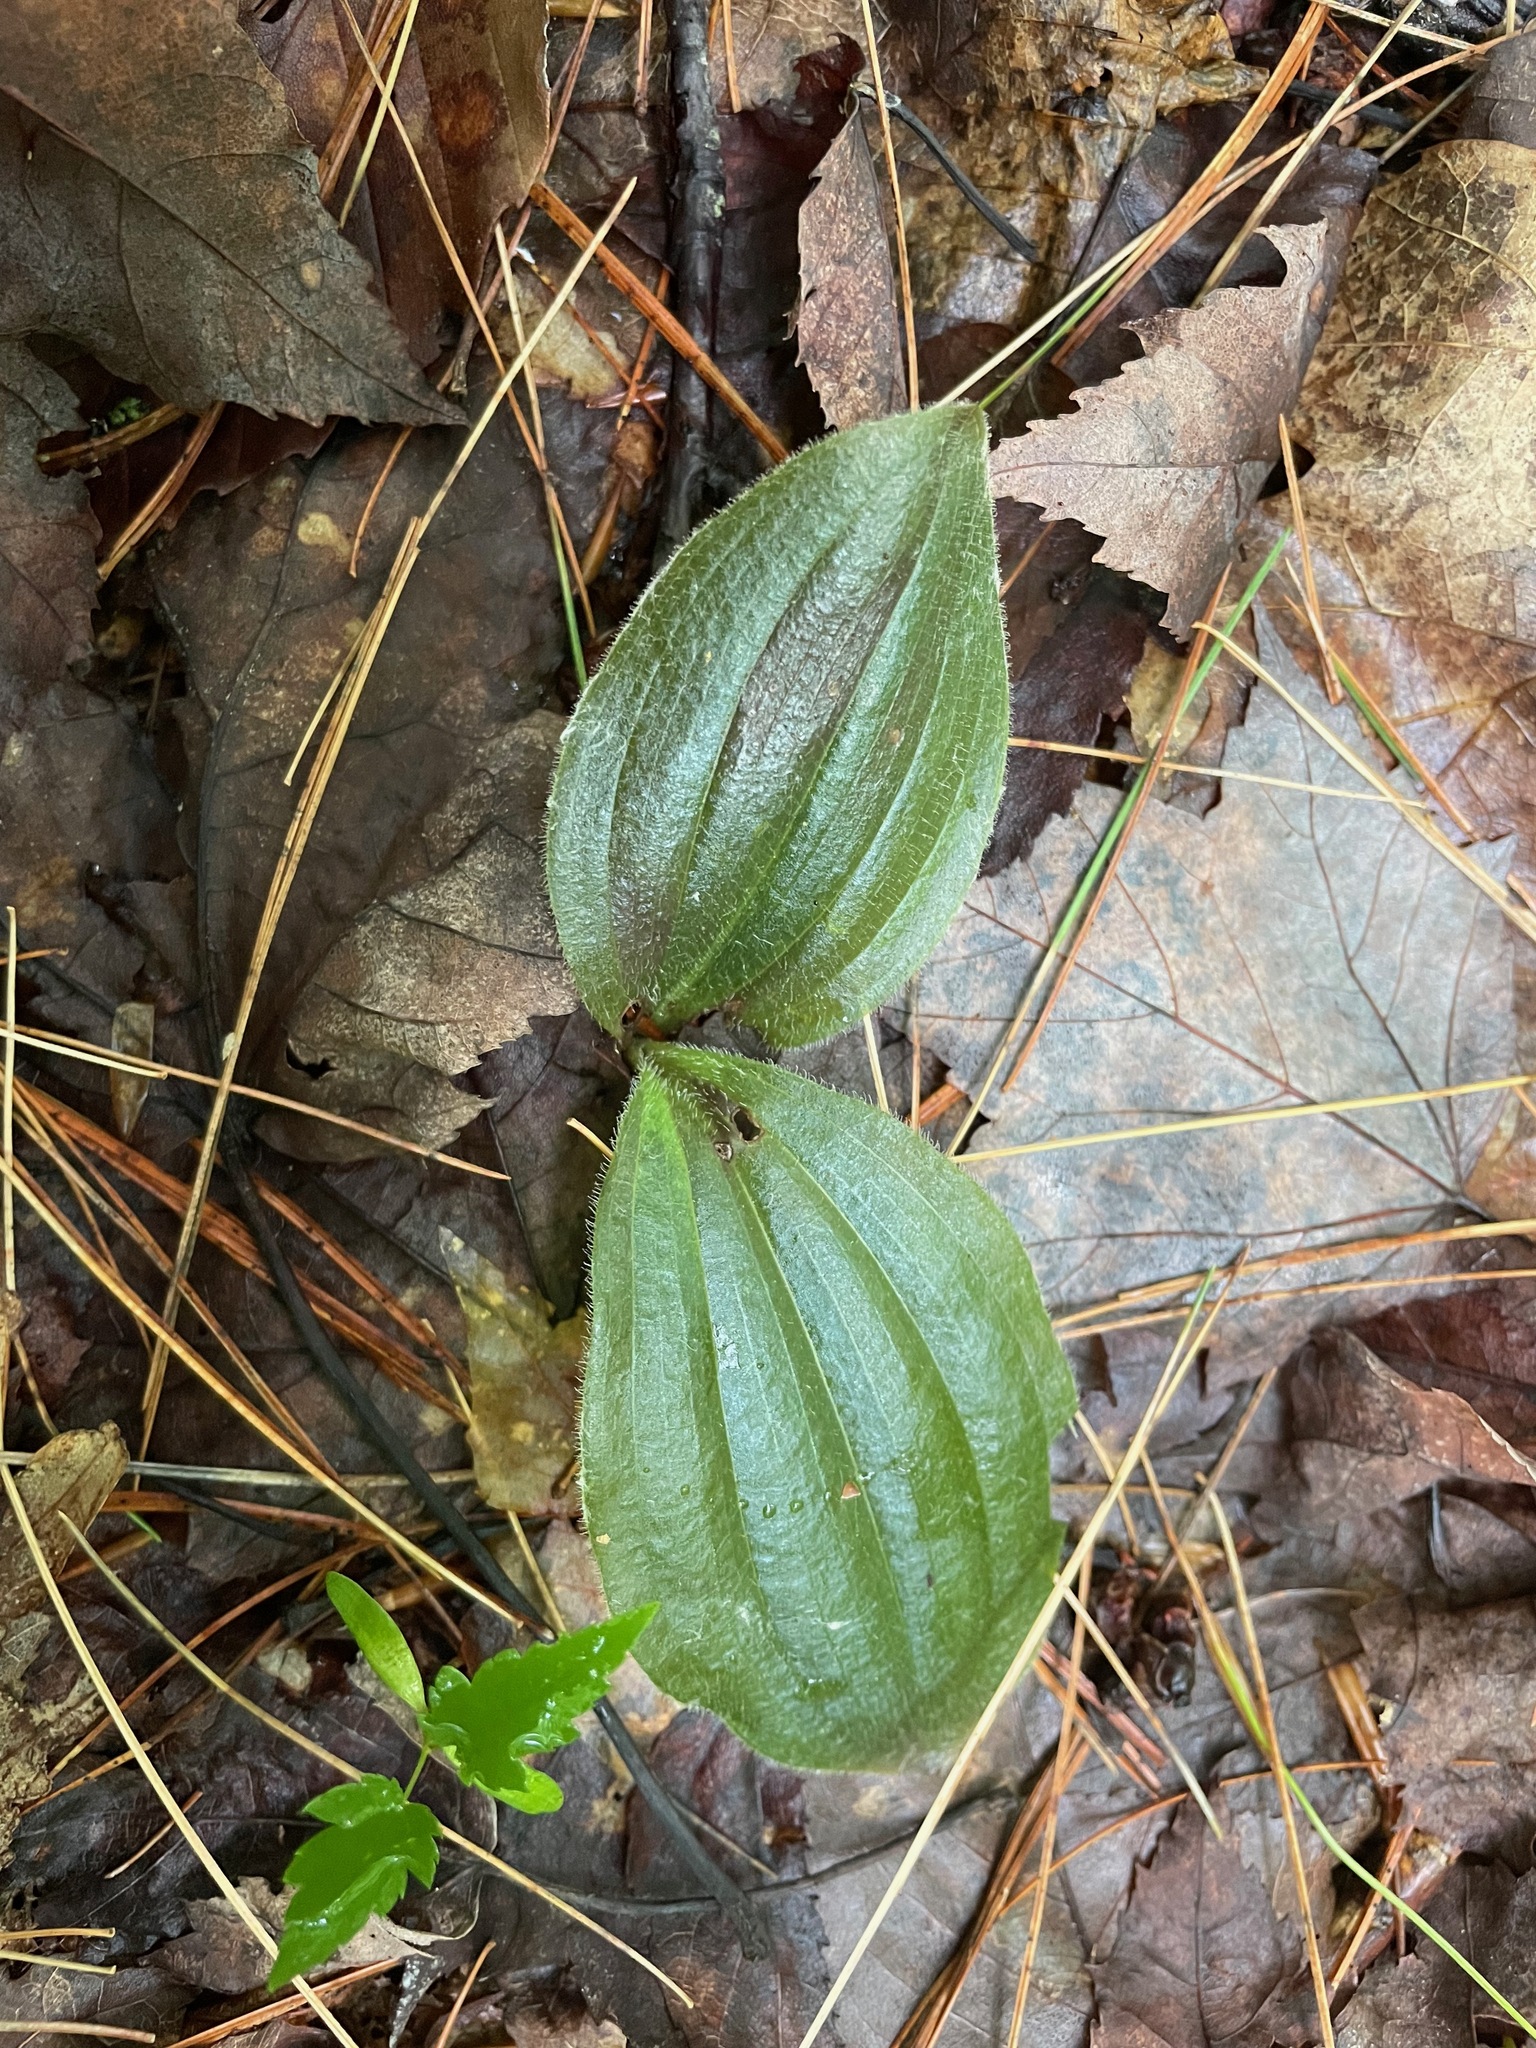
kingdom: Plantae
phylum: Tracheophyta
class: Liliopsida
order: Asparagales
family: Orchidaceae
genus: Cypripedium
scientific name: Cypripedium acaule
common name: Pink lady's-slipper
